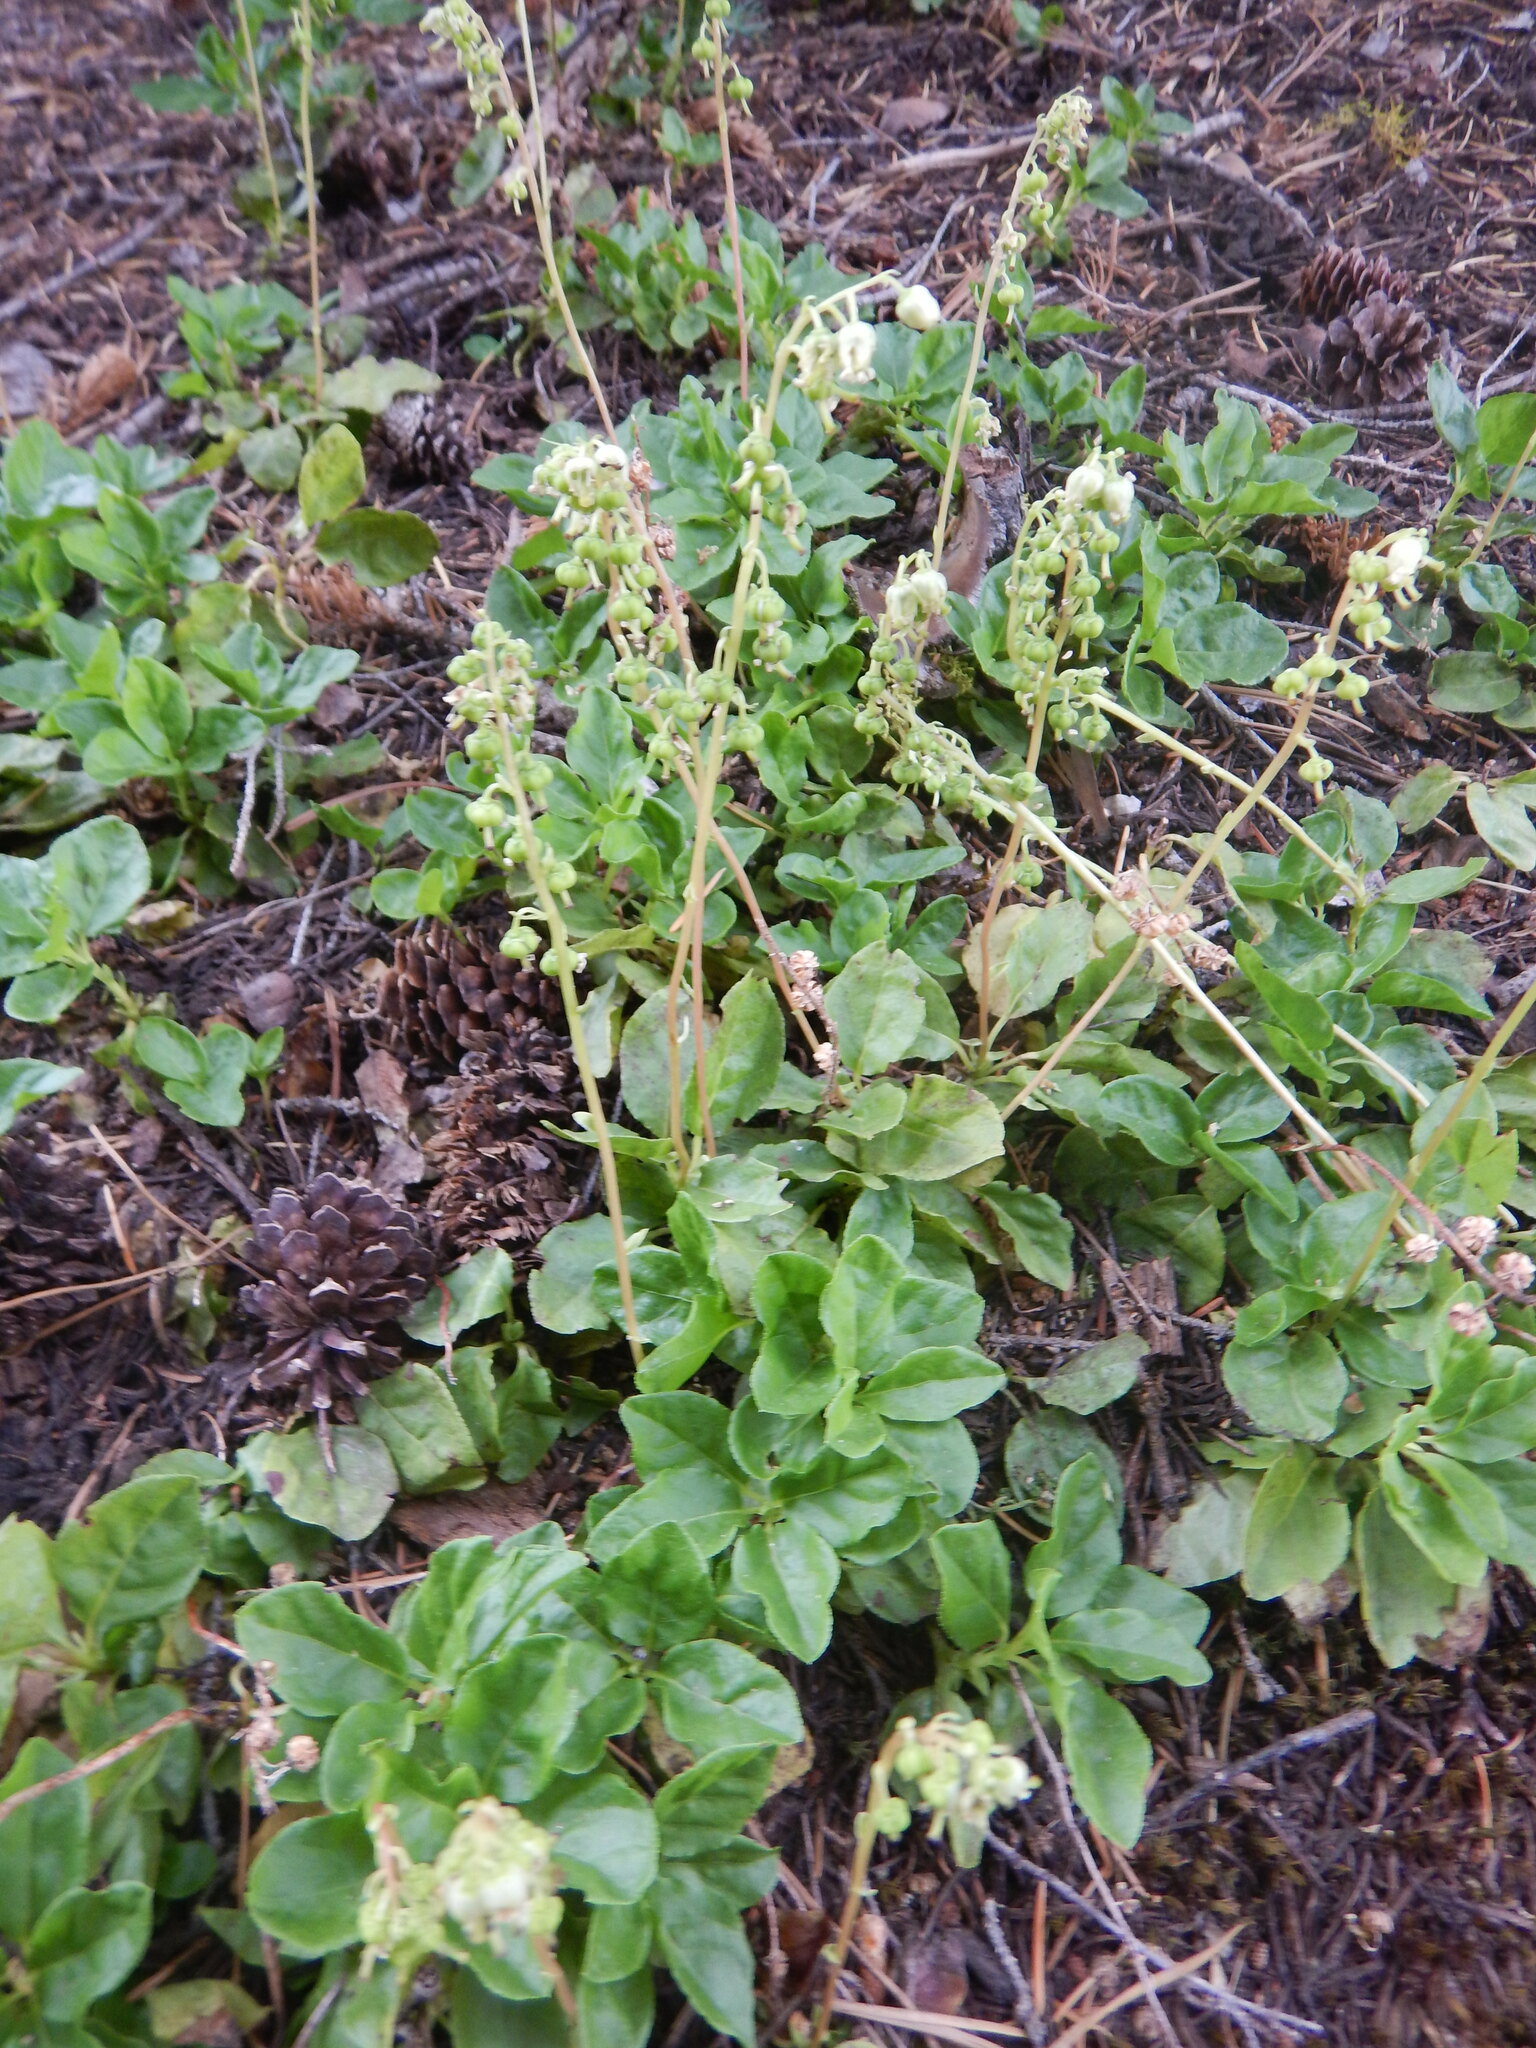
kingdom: Plantae
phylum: Tracheophyta
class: Magnoliopsida
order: Ericales
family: Ericaceae
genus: Orthilia
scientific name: Orthilia secunda
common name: One-sided orthilia
